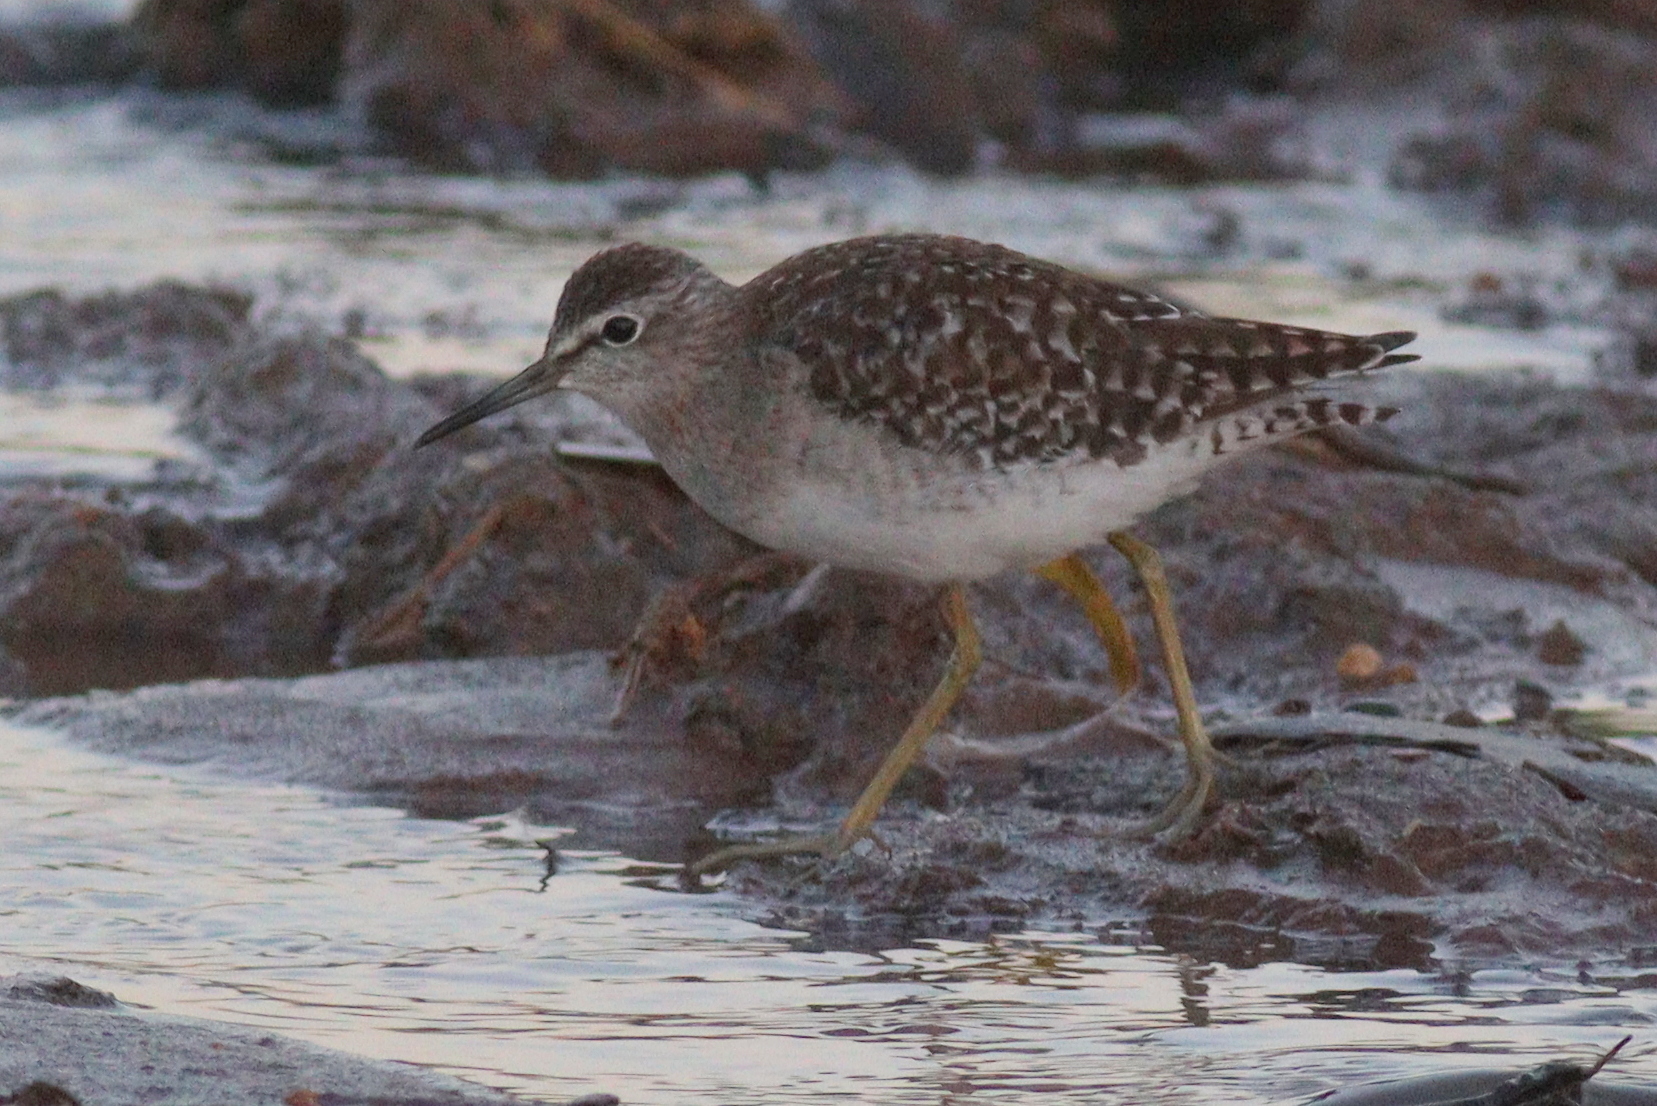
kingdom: Animalia
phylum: Chordata
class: Aves
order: Charadriiformes
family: Scolopacidae
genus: Tringa
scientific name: Tringa glareola
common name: Wood sandpiper
